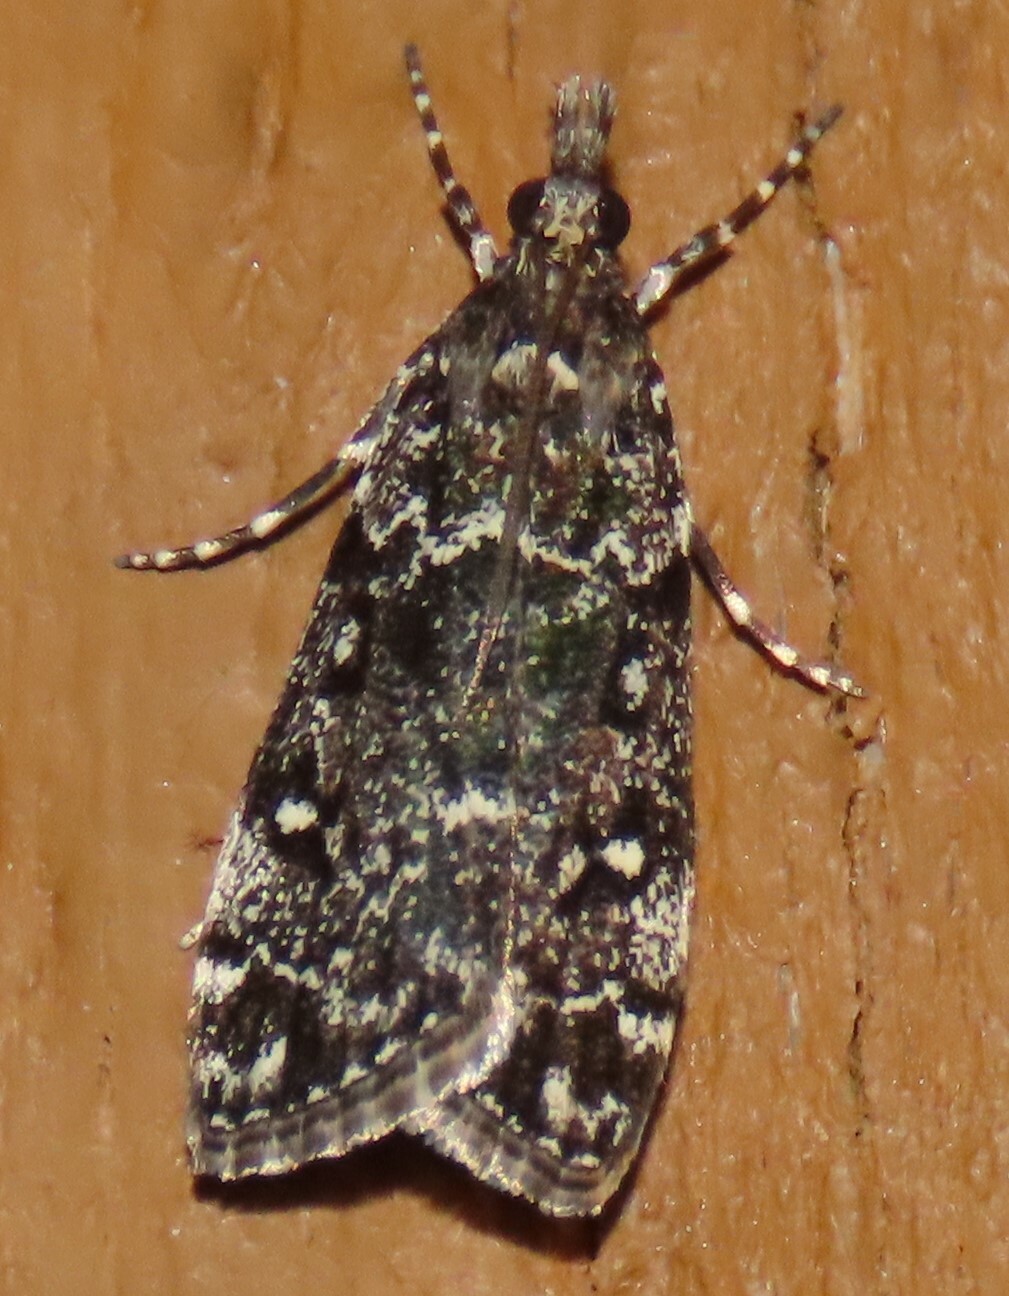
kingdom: Animalia
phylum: Arthropoda
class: Insecta
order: Lepidoptera
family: Crambidae
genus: Eudonia
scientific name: Eudonia philerga
